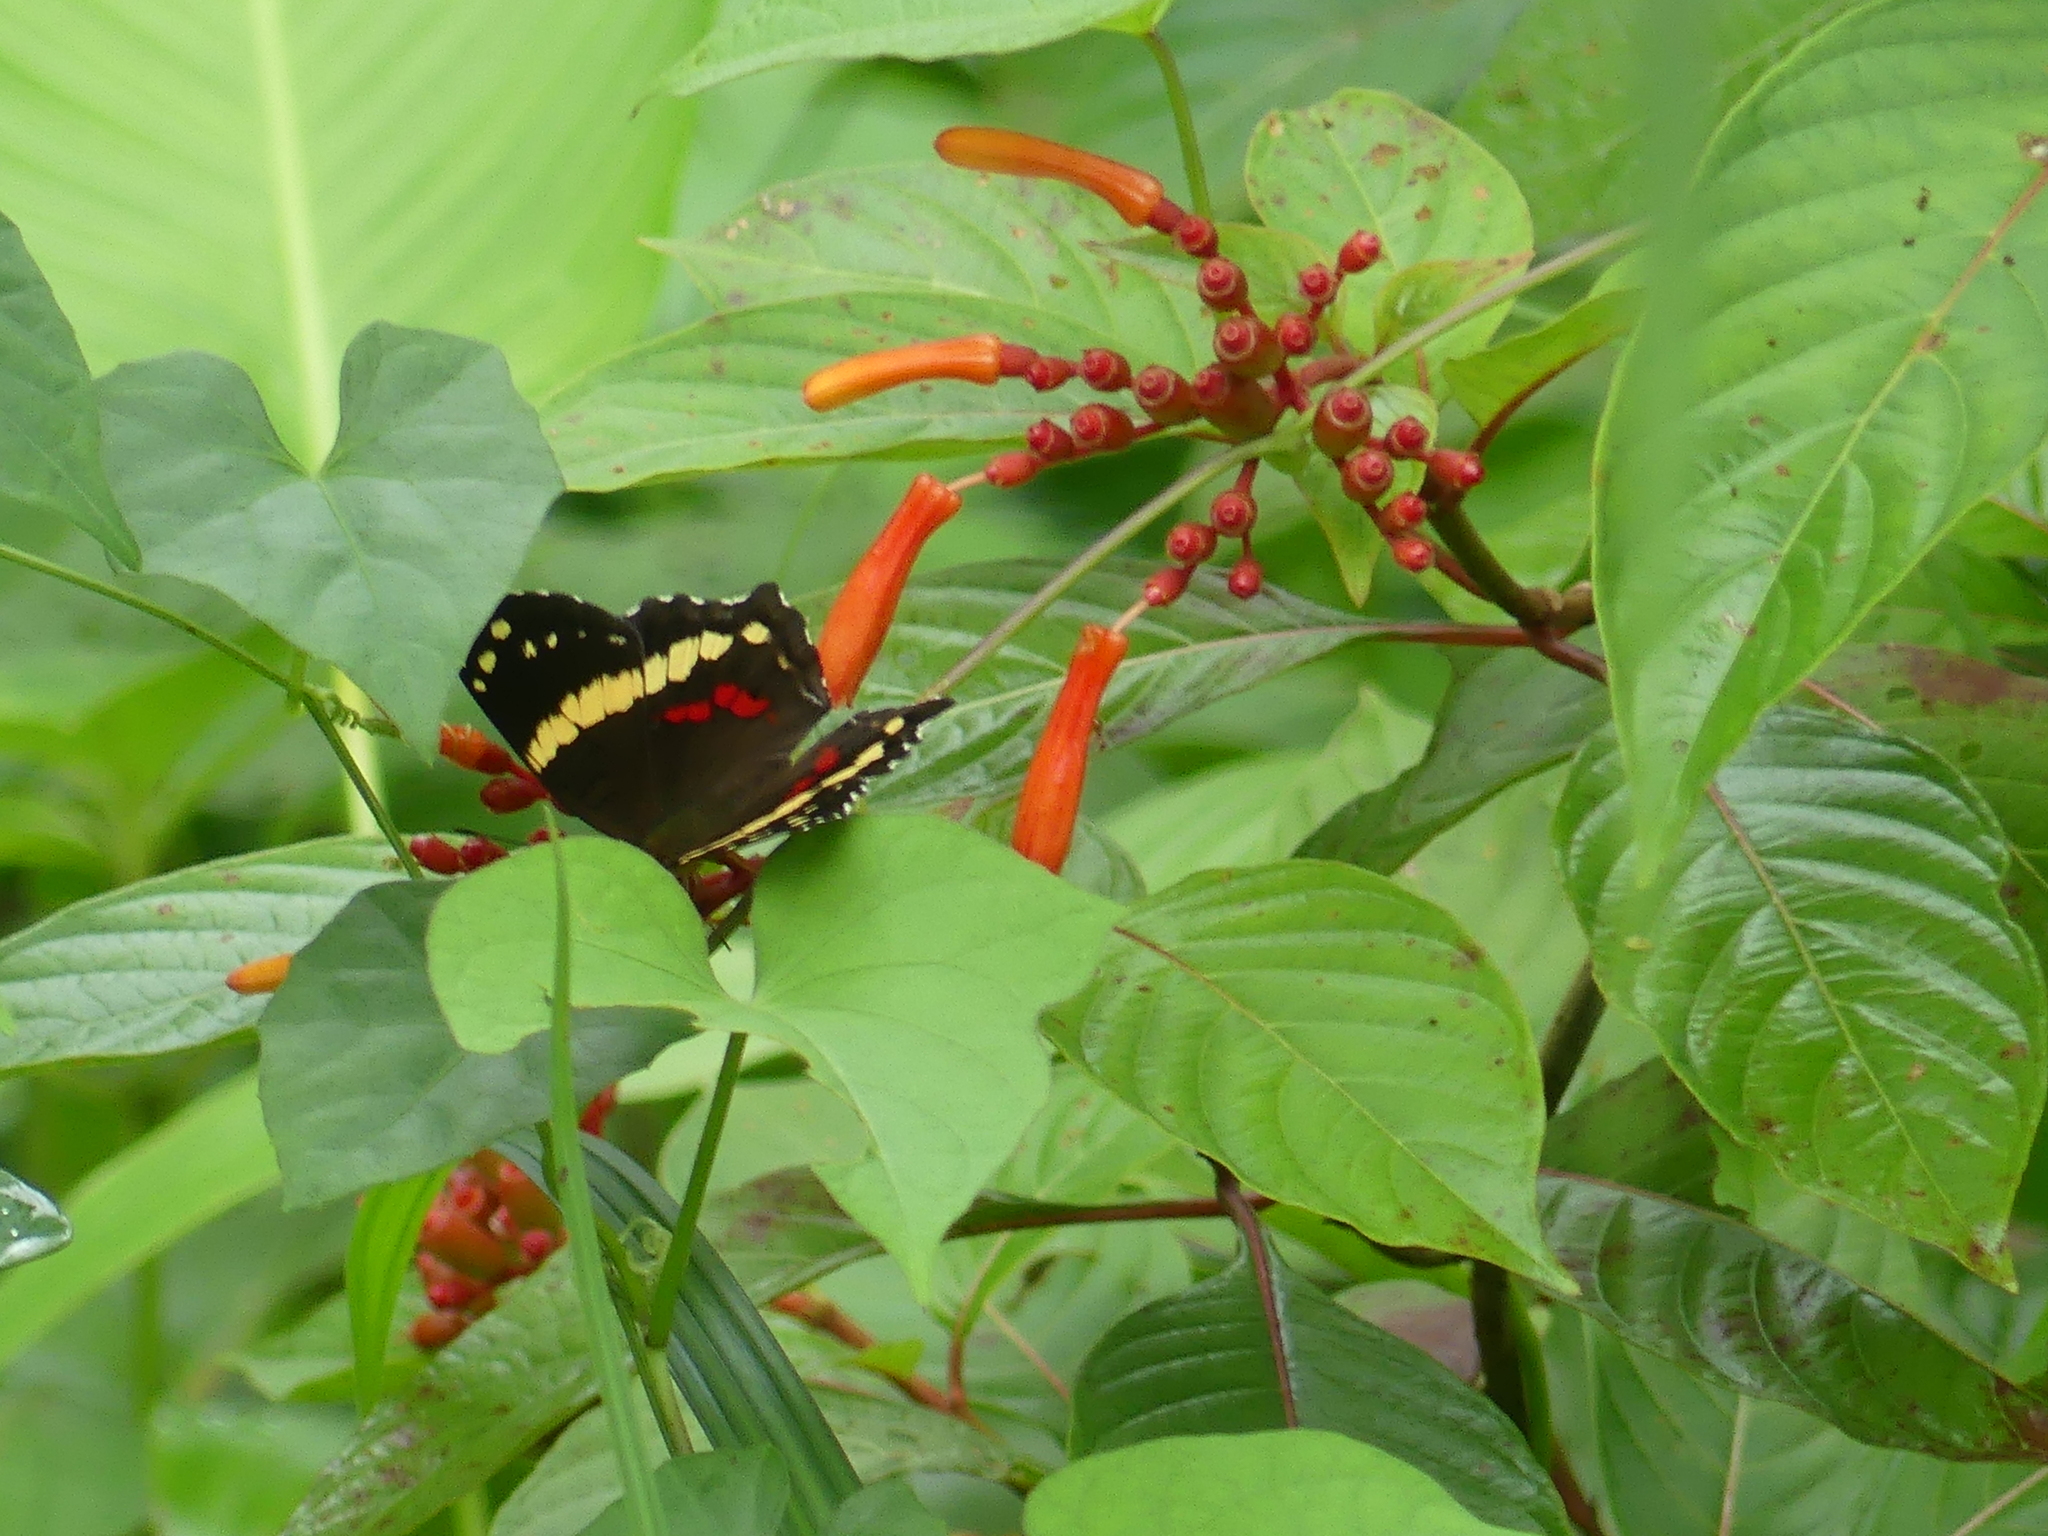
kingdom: Animalia
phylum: Arthropoda
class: Insecta
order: Lepidoptera
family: Nymphalidae
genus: Anartia
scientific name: Anartia fatima
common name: Banded peacock
